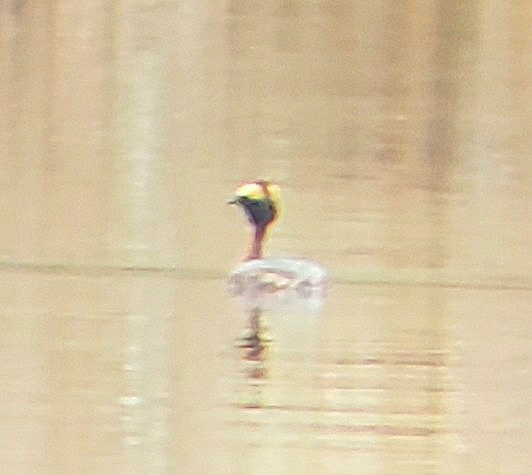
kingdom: Animalia
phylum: Chordata
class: Aves
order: Podicipediformes
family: Podicipedidae
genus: Podiceps
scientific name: Podiceps auritus
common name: Horned grebe
